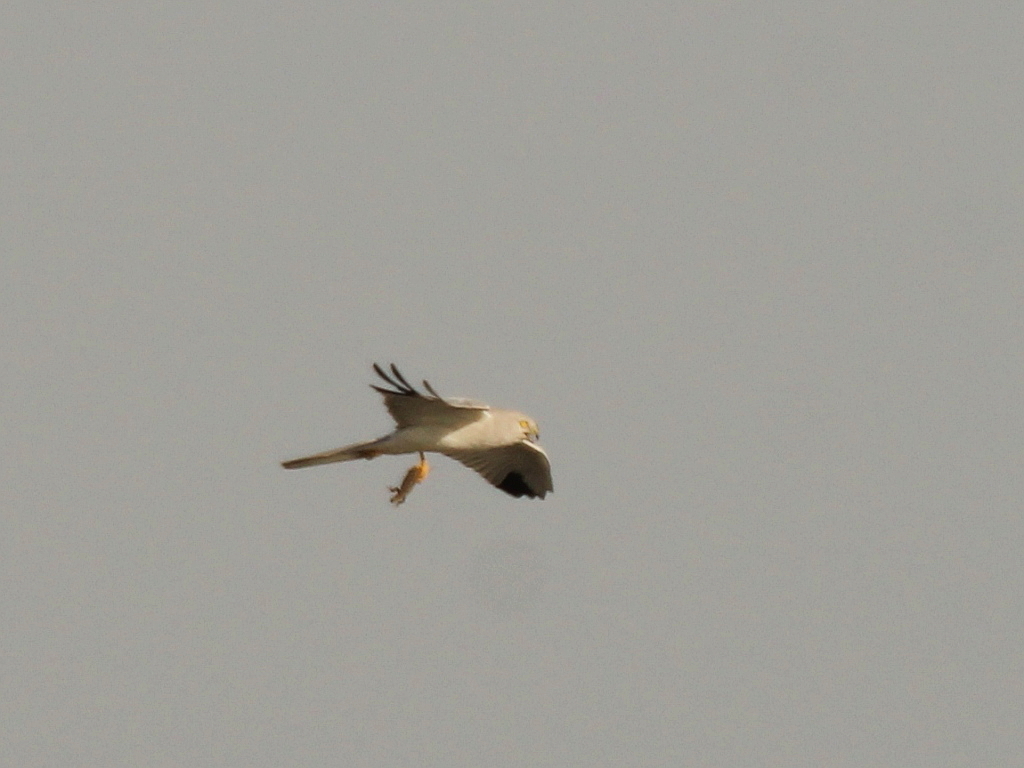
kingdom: Animalia
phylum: Chordata
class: Aves
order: Accipitriformes
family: Accipitridae
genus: Circus
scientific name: Circus macrourus
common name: Pallid harrier
